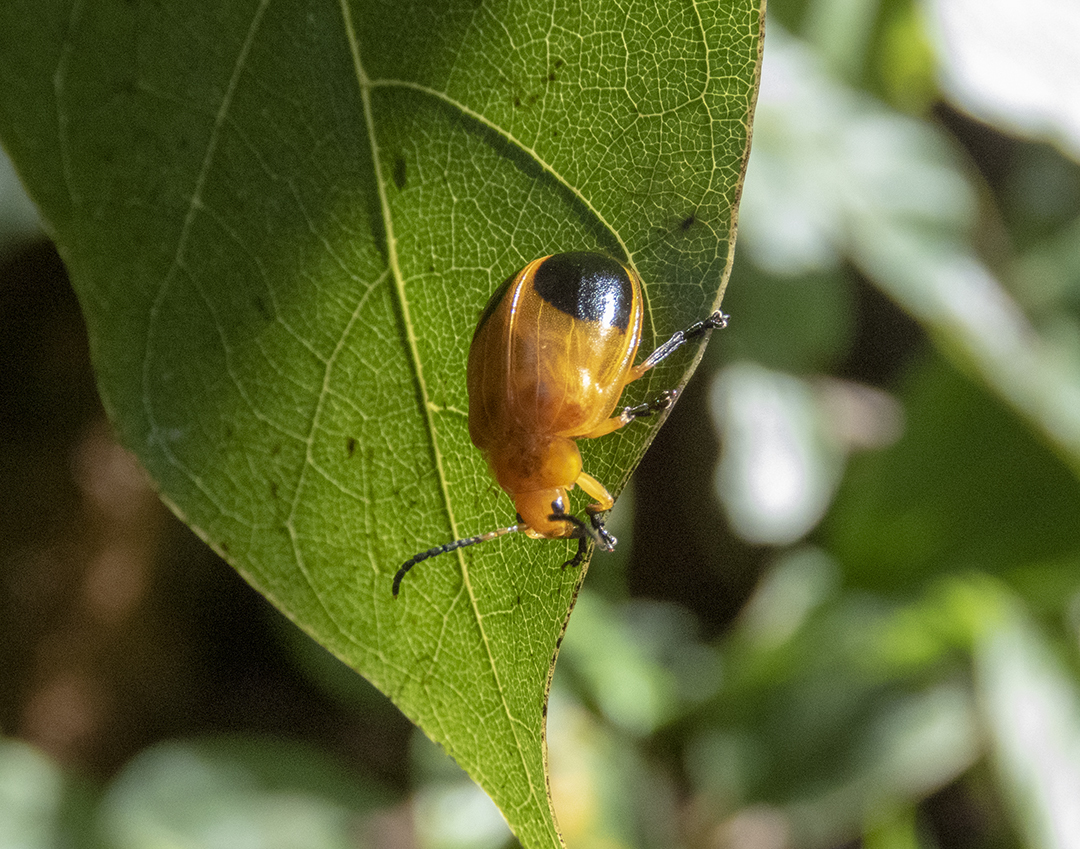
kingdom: Animalia
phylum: Arthropoda
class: Insecta
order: Coleoptera
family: Chrysomelidae
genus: Oides
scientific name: Oides palleata
